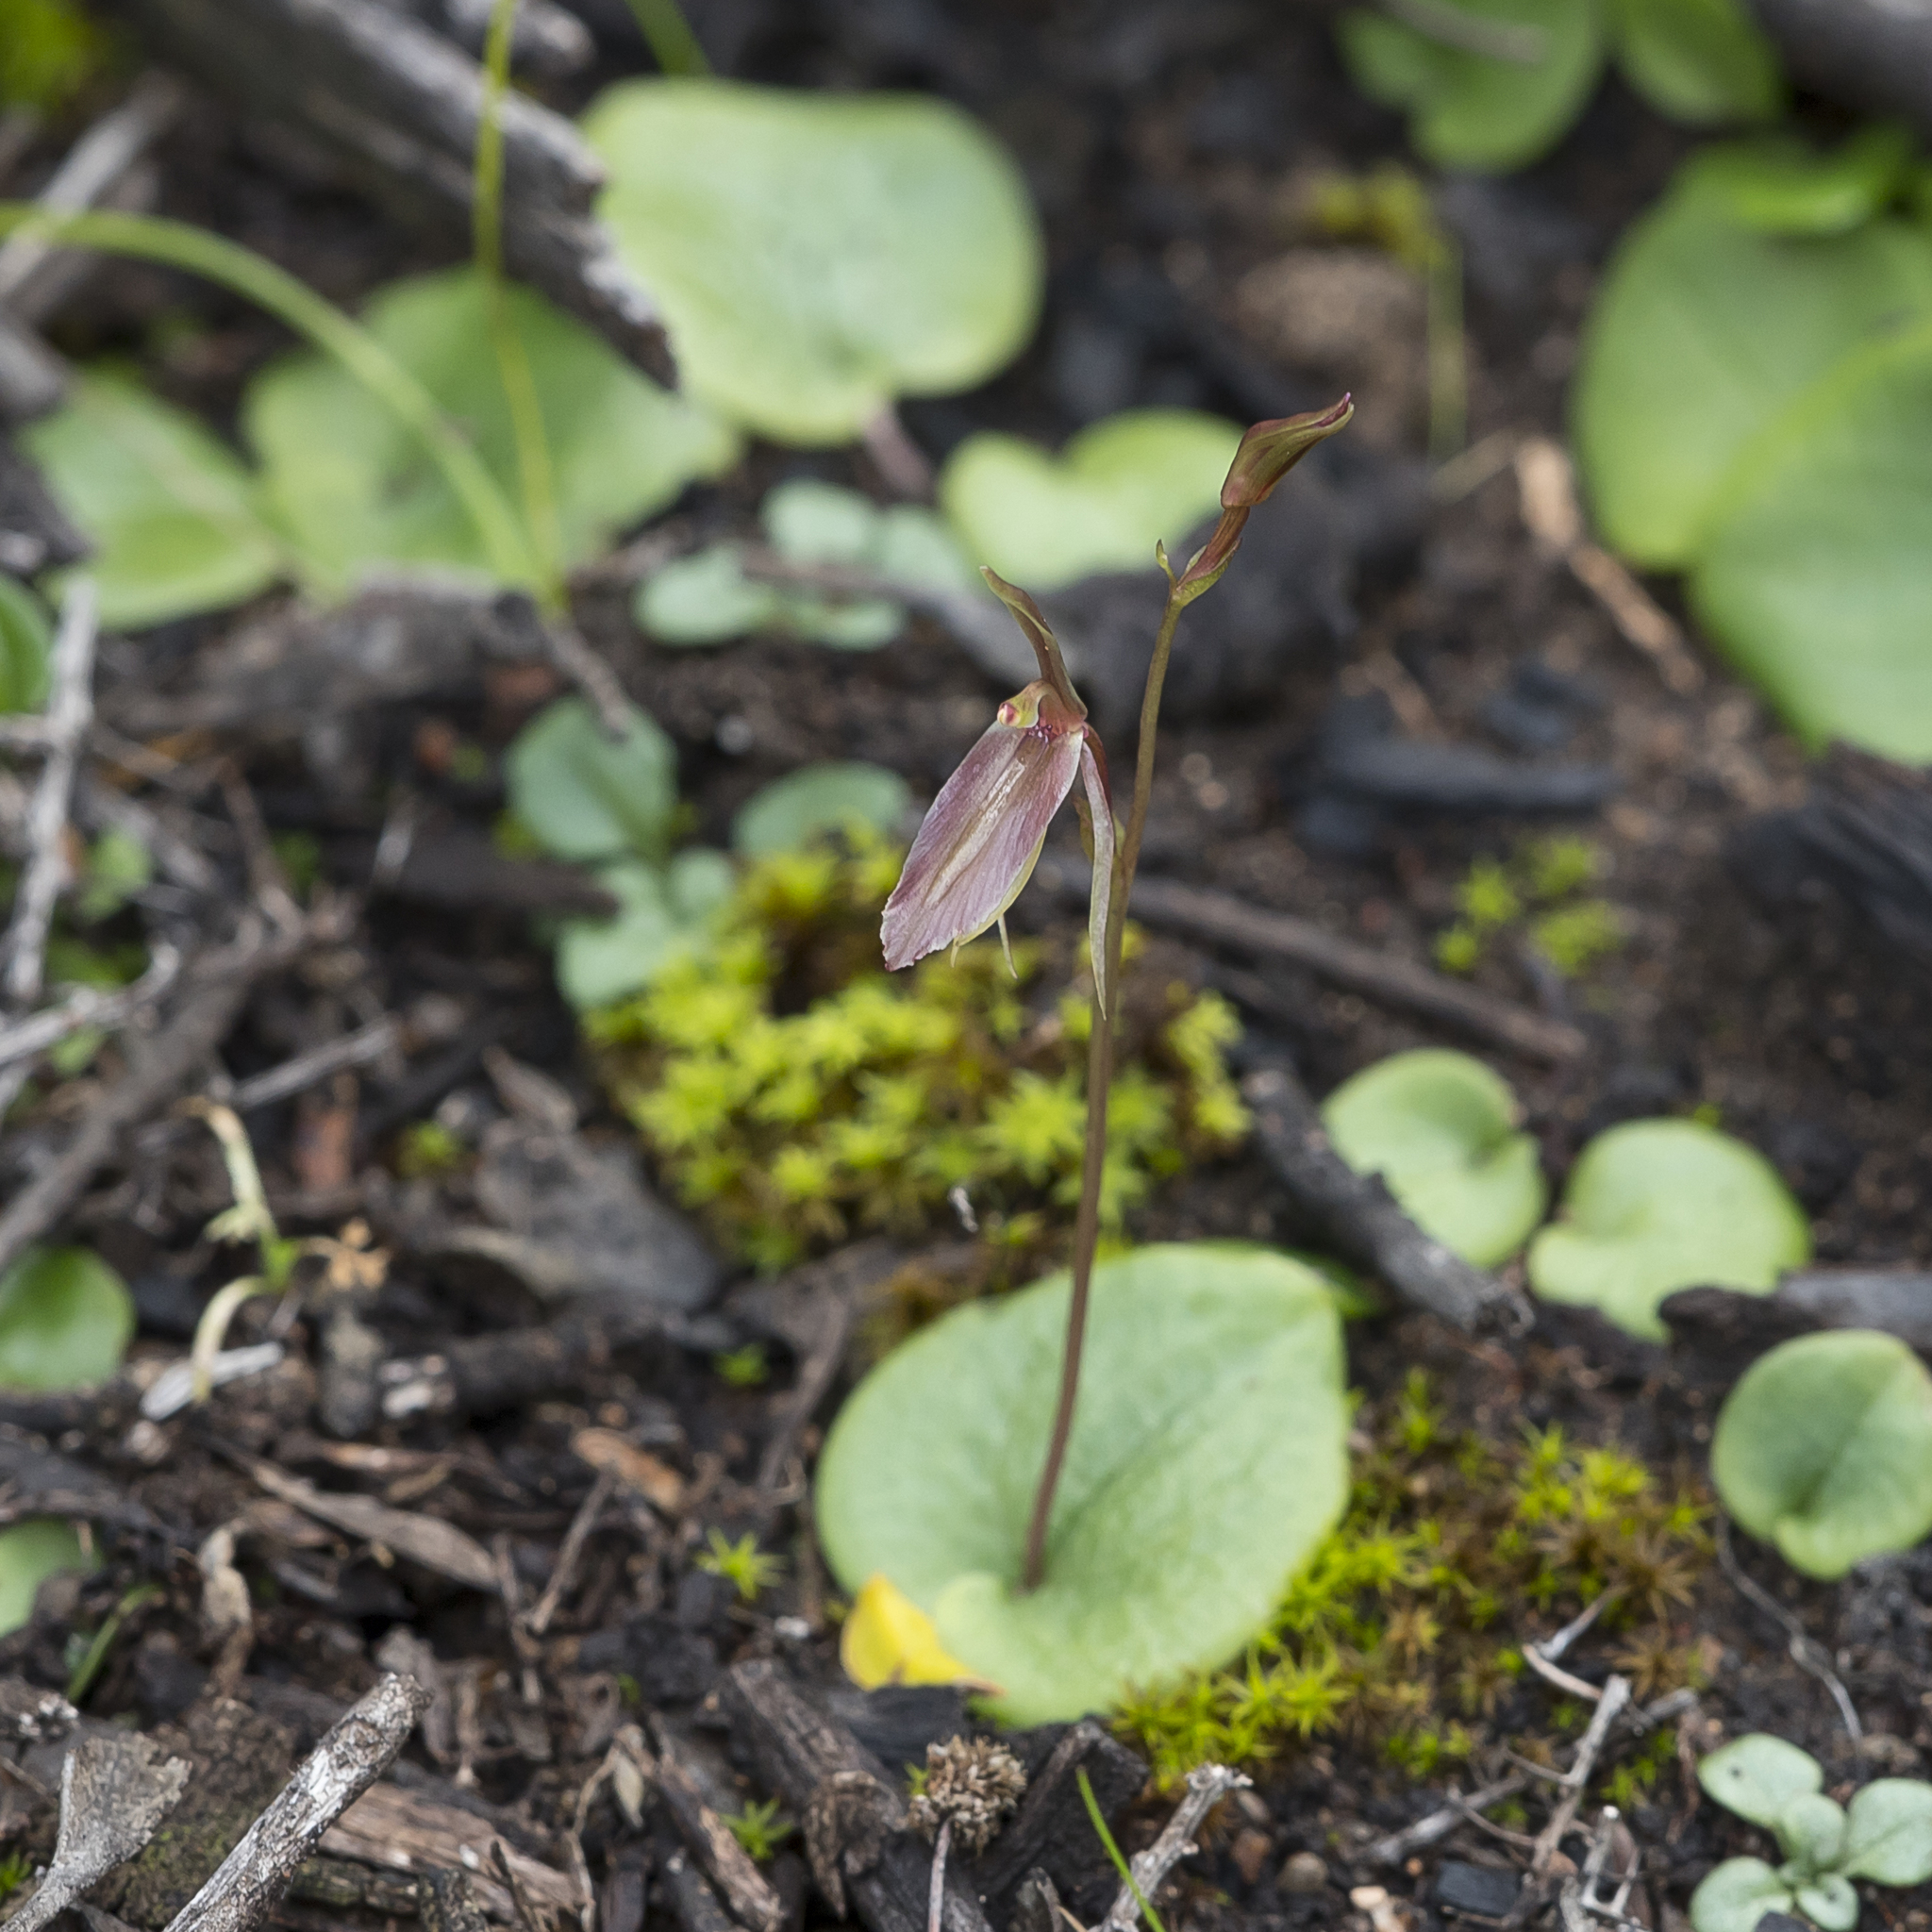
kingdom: Plantae
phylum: Tracheophyta
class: Liliopsida
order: Asparagales
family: Orchidaceae
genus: Cyrtostylis
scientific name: Cyrtostylis robusta
